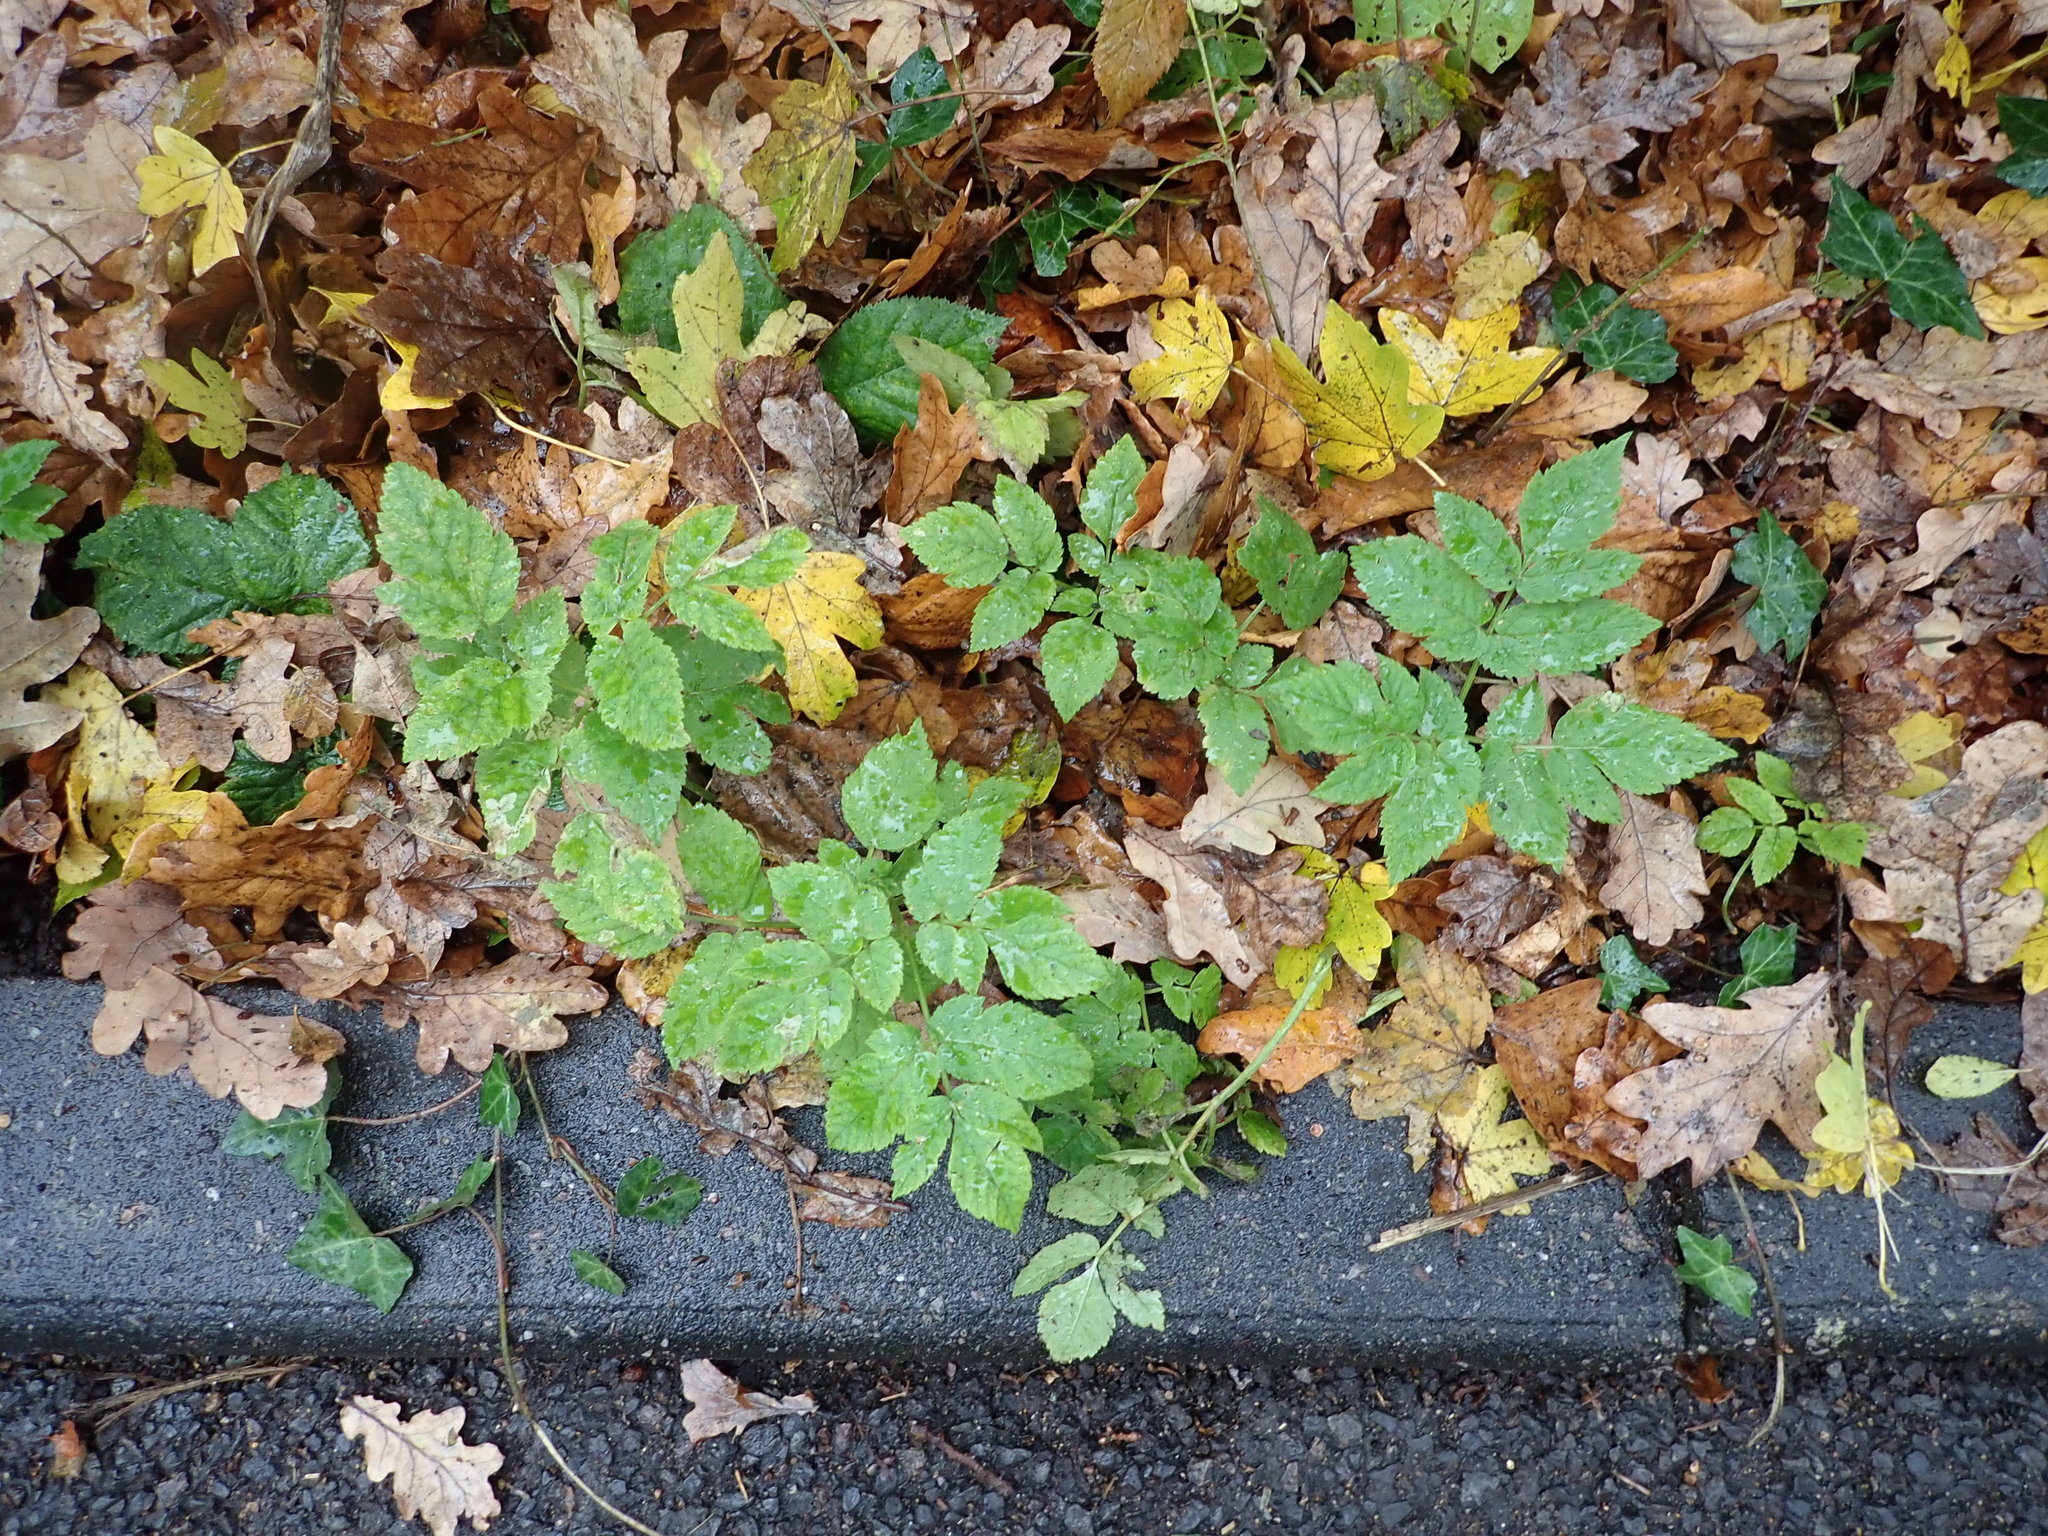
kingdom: Plantae
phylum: Tracheophyta
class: Magnoliopsida
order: Apiales
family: Apiaceae
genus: Aegopodium
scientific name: Aegopodium podagraria
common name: Ground-elder
